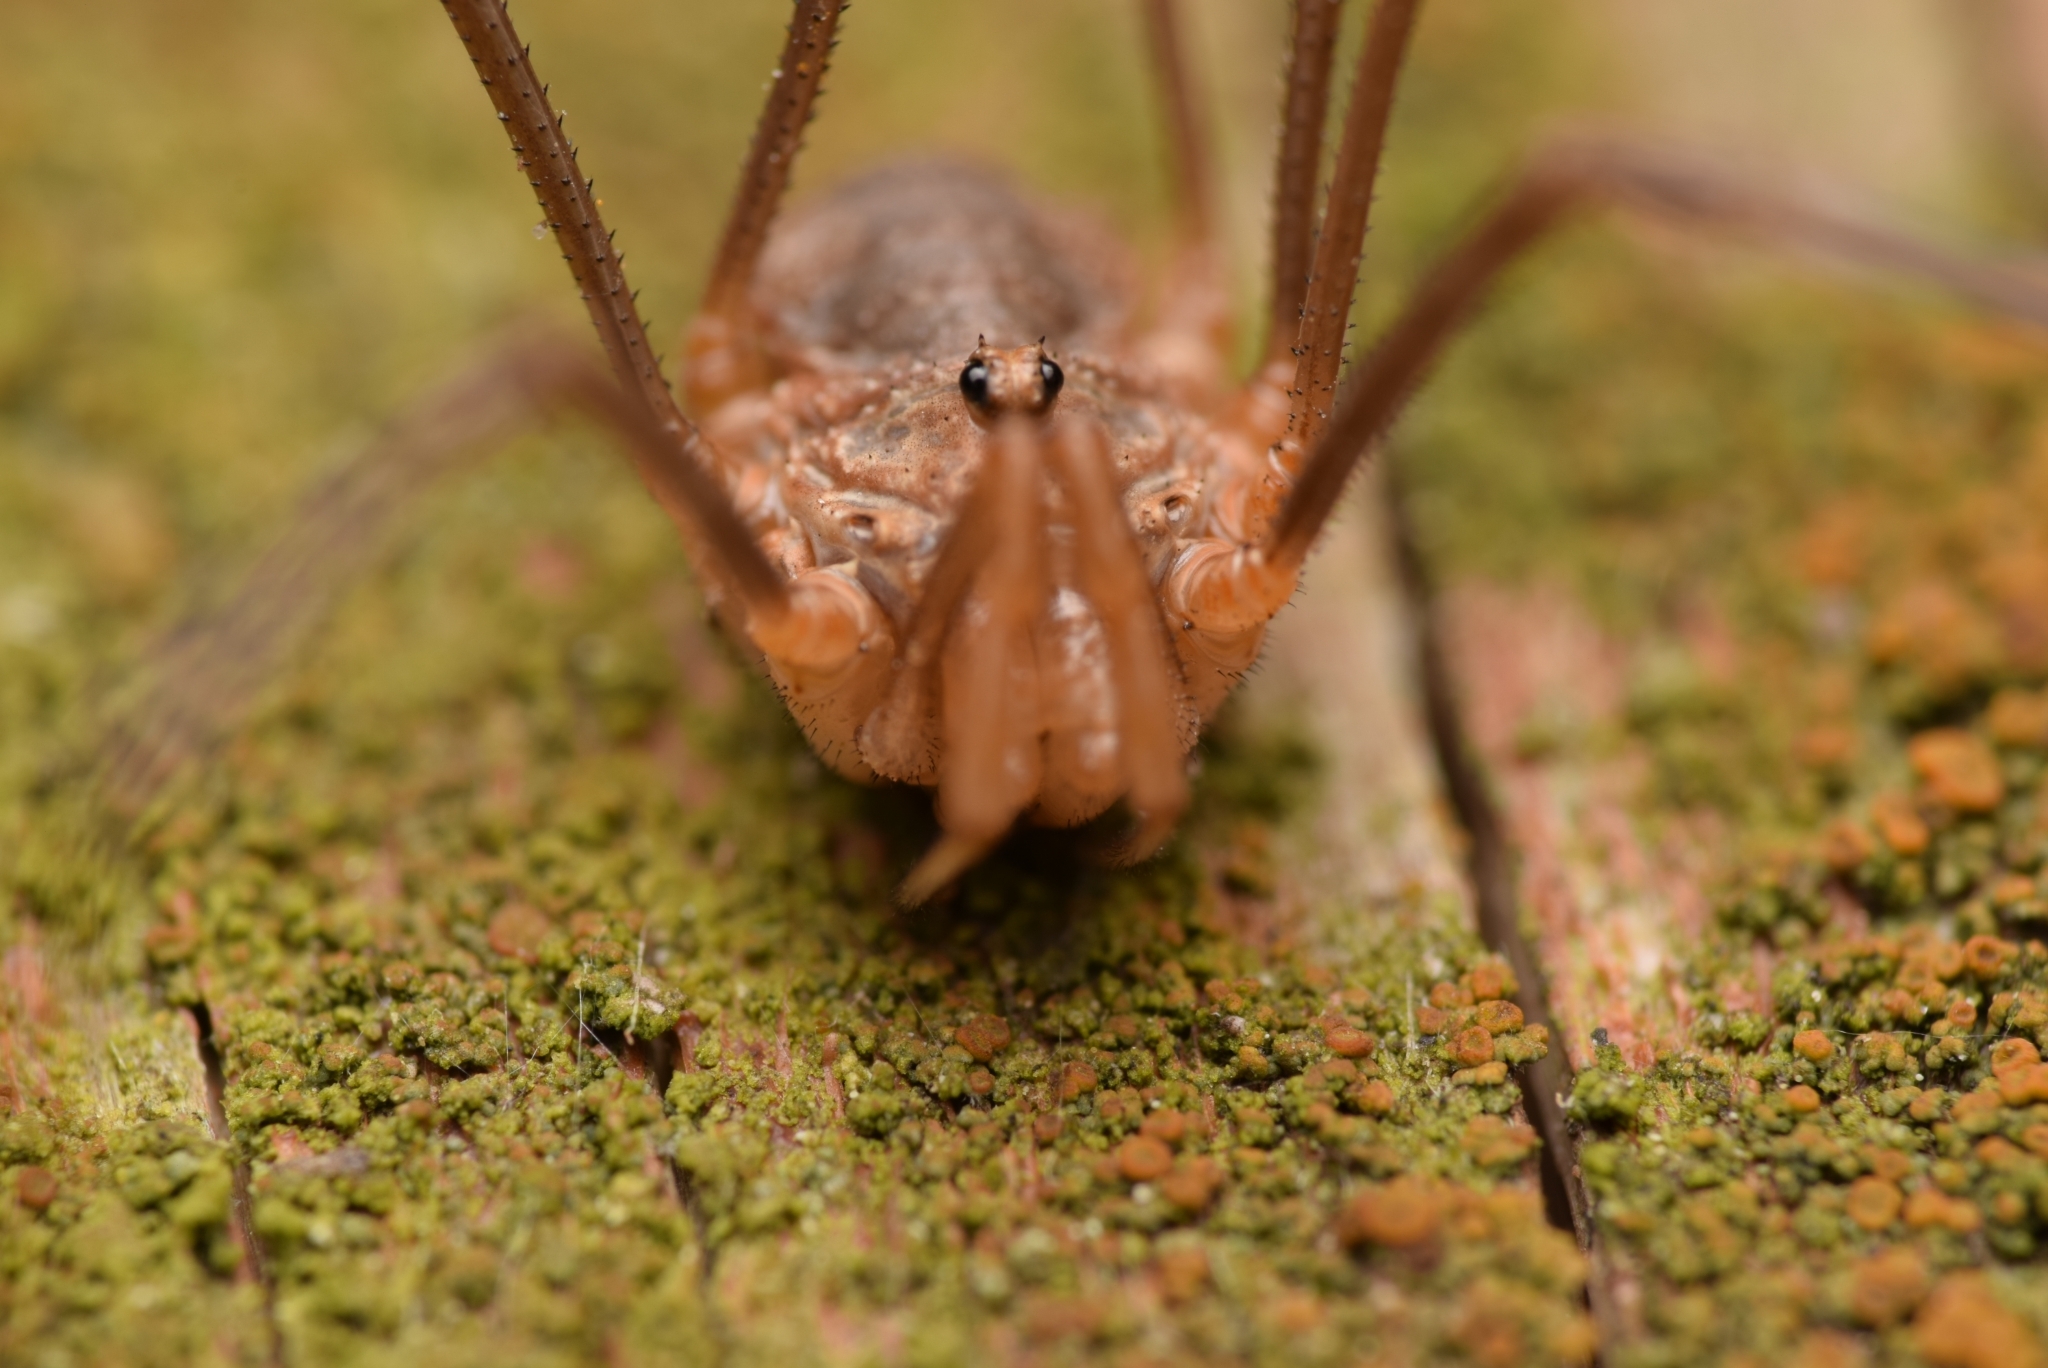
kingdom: Animalia
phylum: Arthropoda
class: Arachnida
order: Opiliones
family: Phalangiidae
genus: Phalangium
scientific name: Phalangium opilio
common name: Daddy longleg
